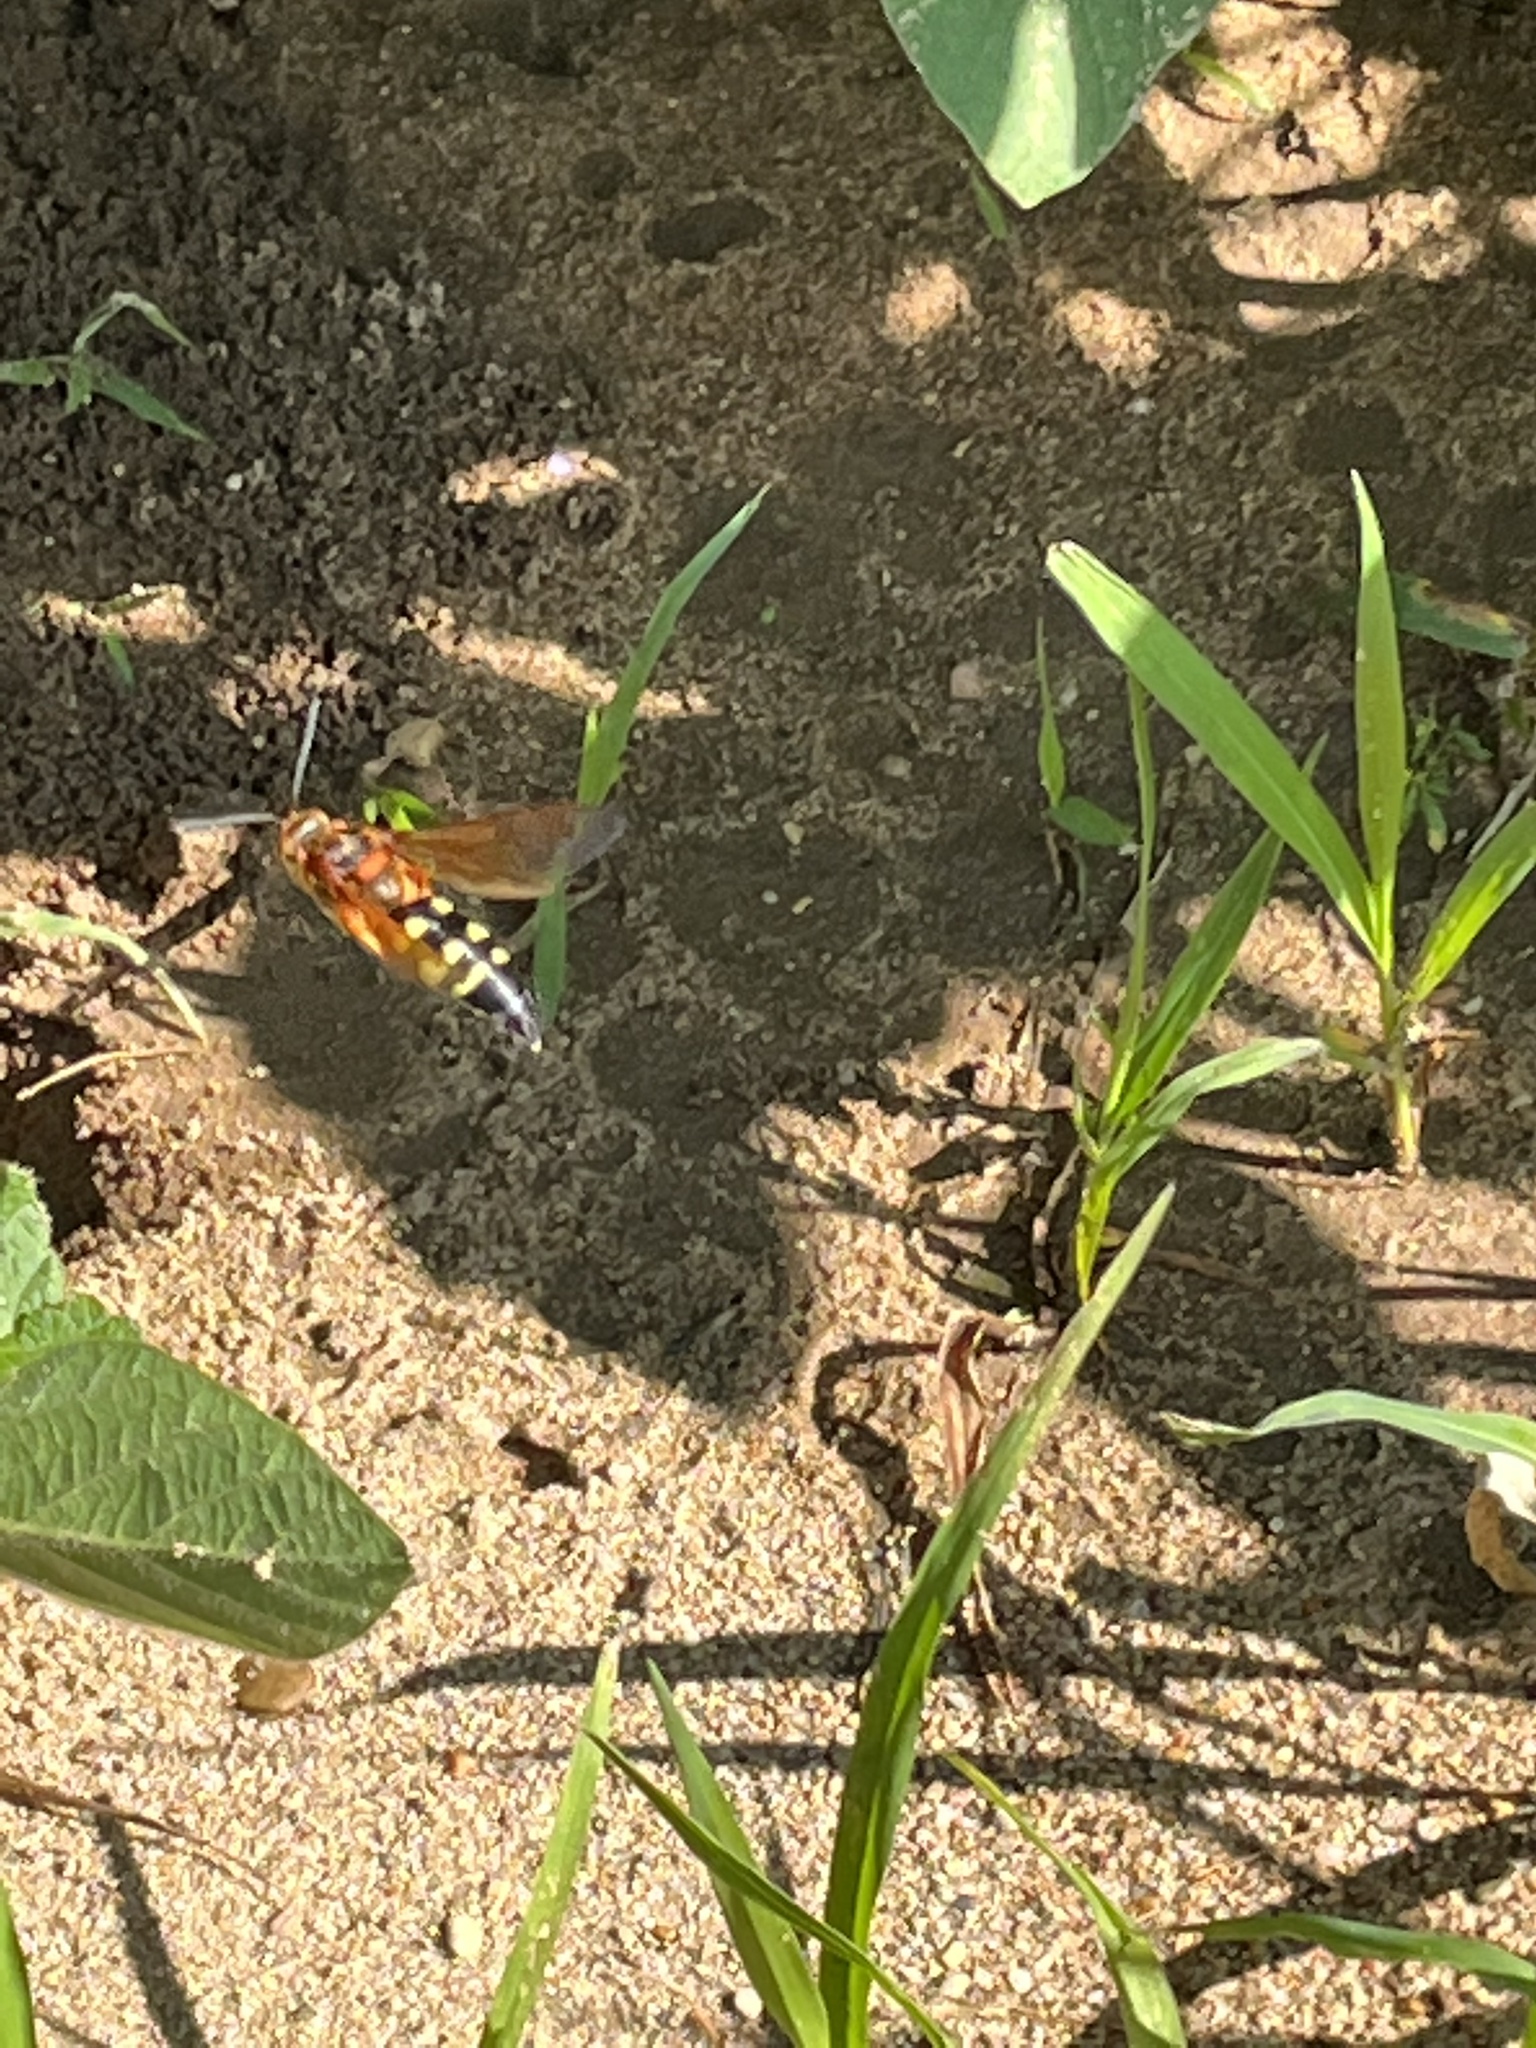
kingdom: Animalia
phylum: Arthropoda
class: Insecta
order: Hymenoptera
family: Crabronidae
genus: Sphecius
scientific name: Sphecius speciosus
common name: Cicada killer
